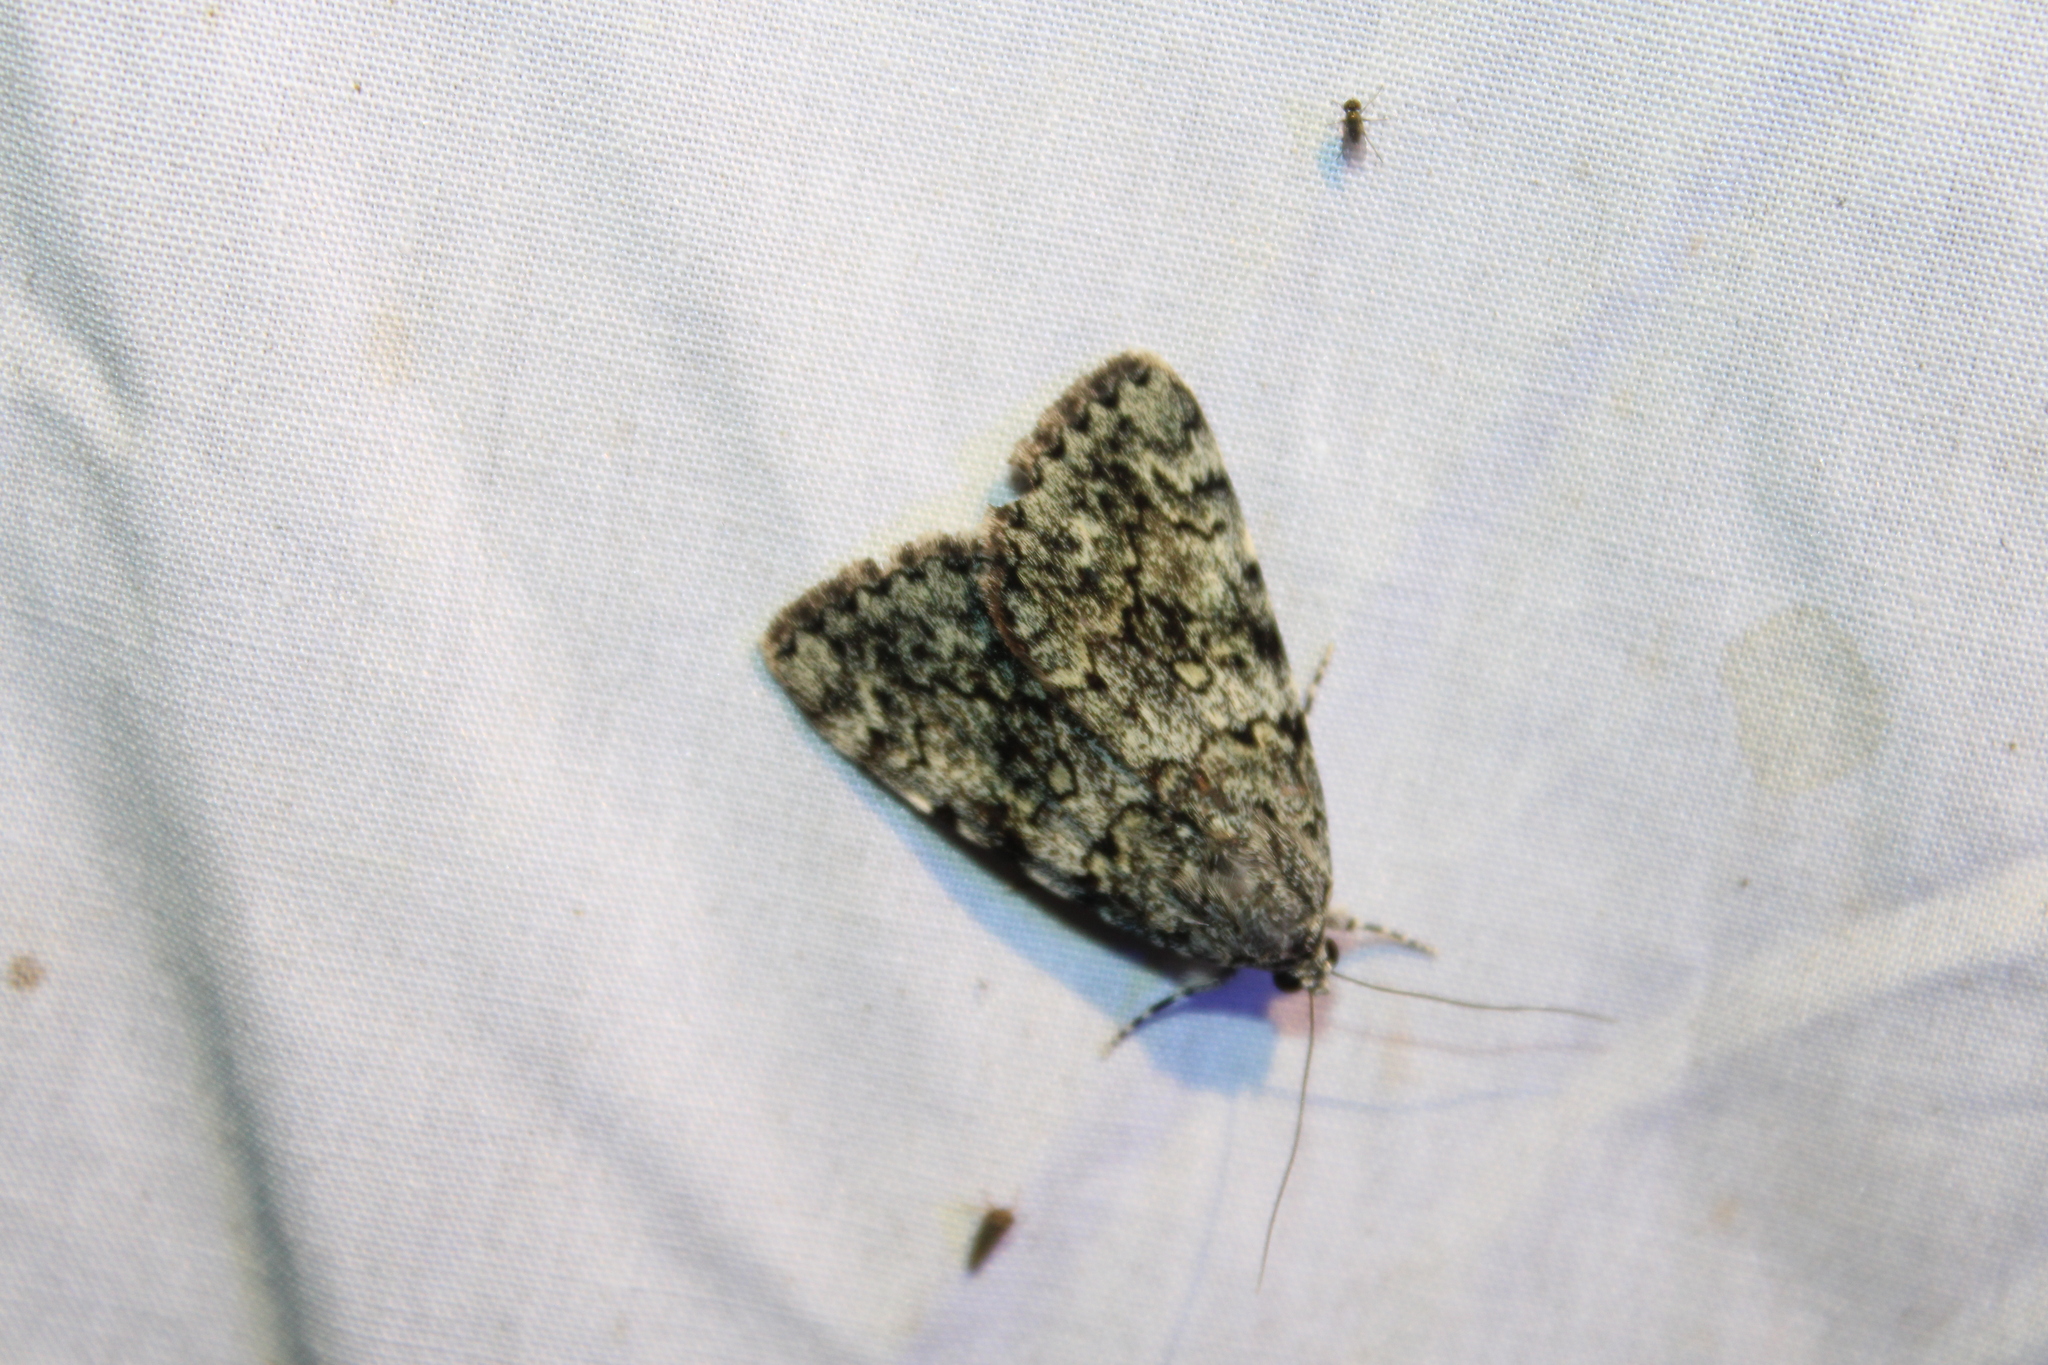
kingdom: Animalia
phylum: Arthropoda
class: Insecta
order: Lepidoptera
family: Erebidae
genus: Catocala
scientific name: Catocala lineella
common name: Little lined underwing
